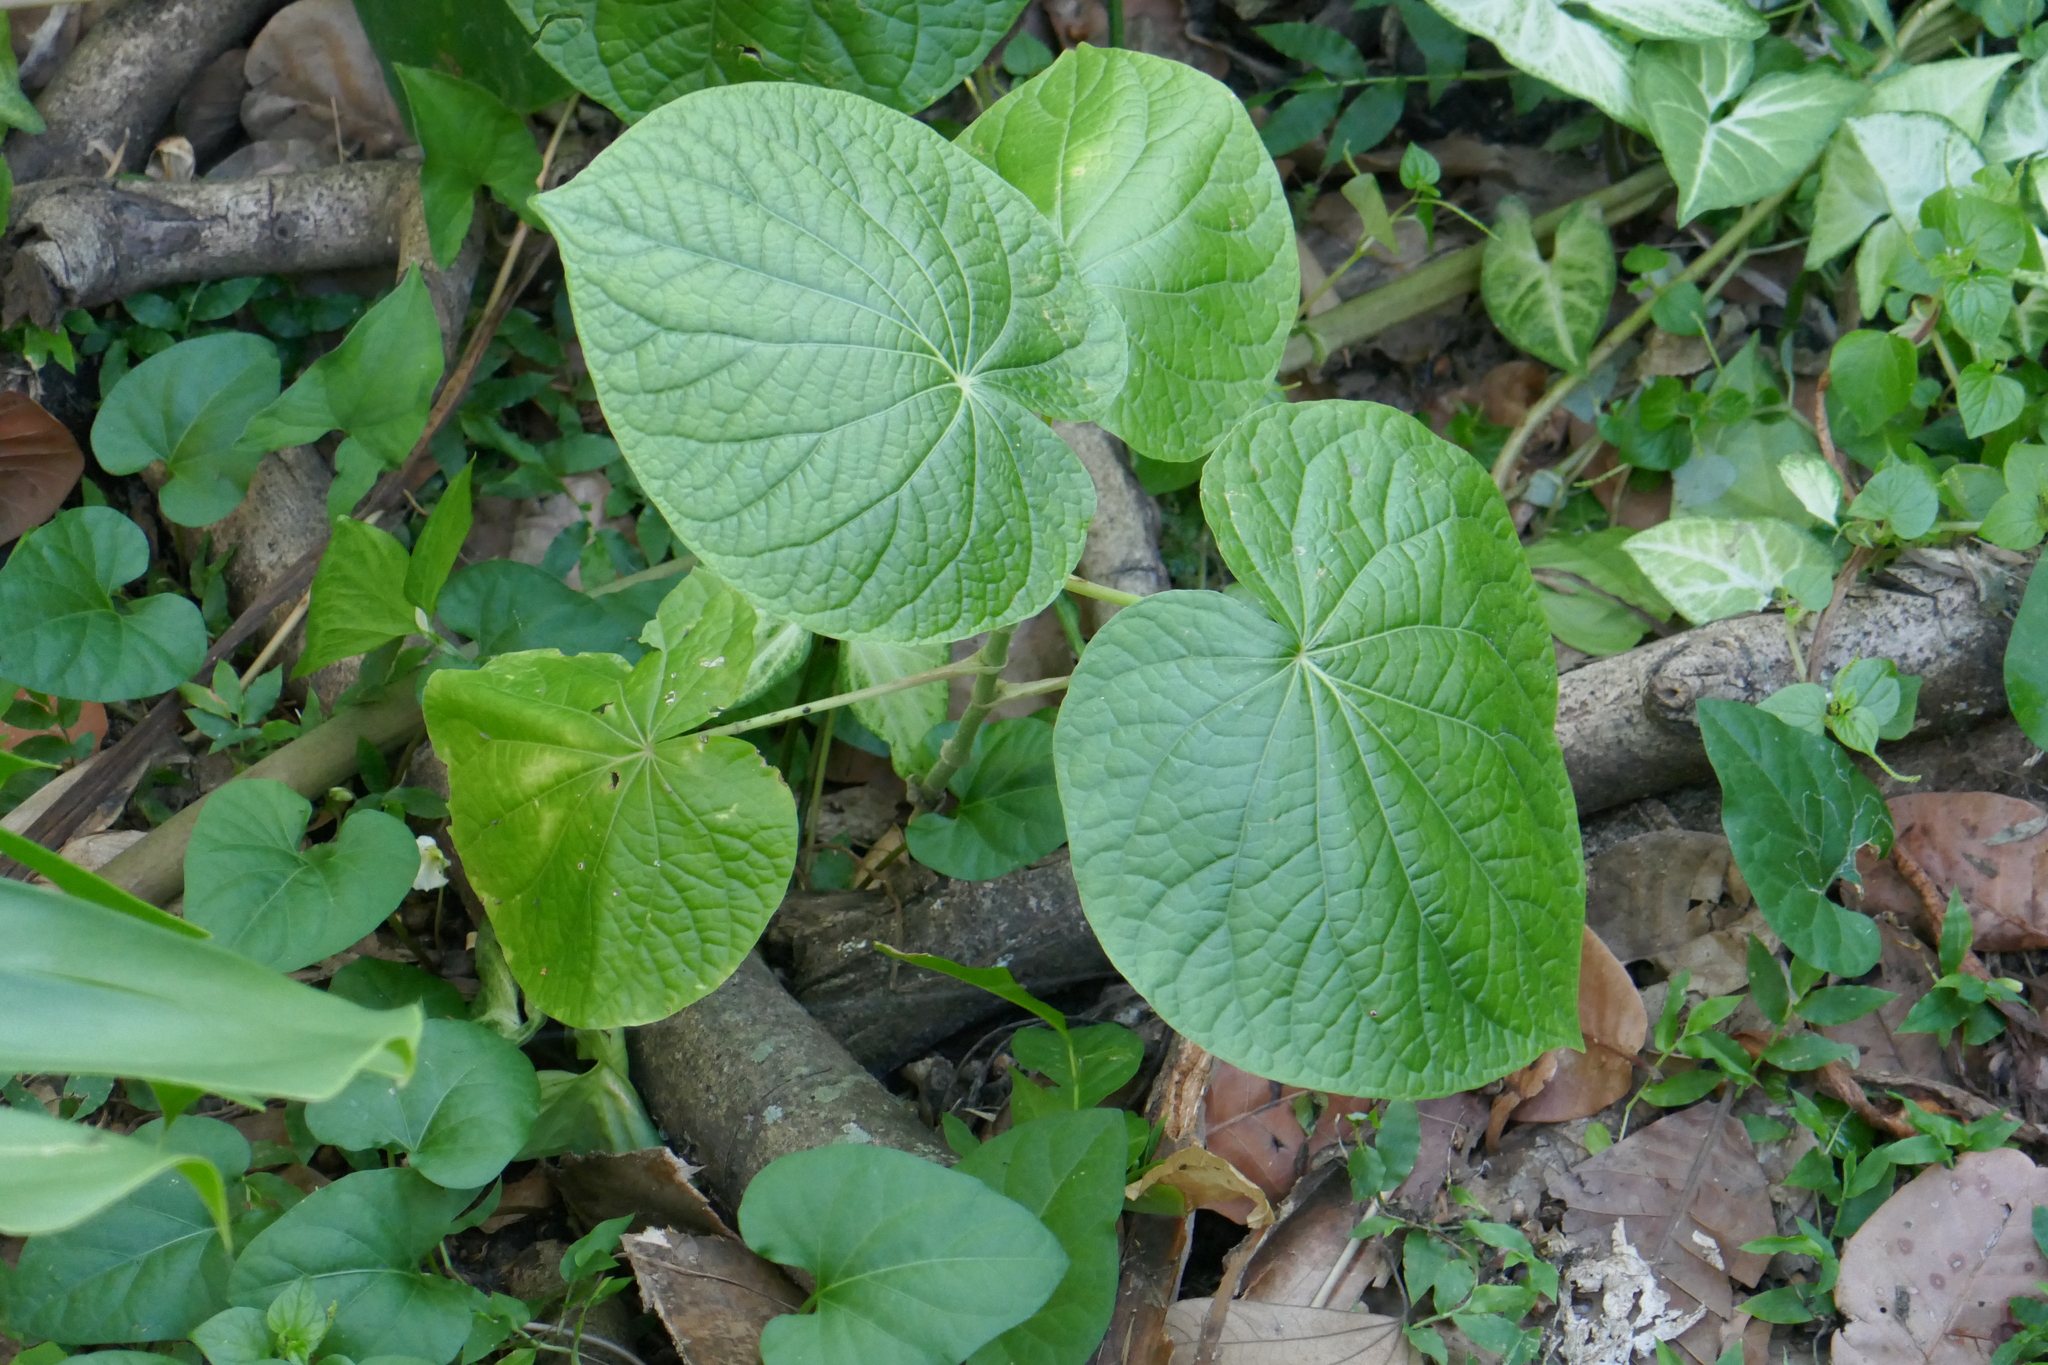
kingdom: Plantae
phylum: Tracheophyta
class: Magnoliopsida
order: Piperales
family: Piperaceae
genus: Piper
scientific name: Piper umbellatum
